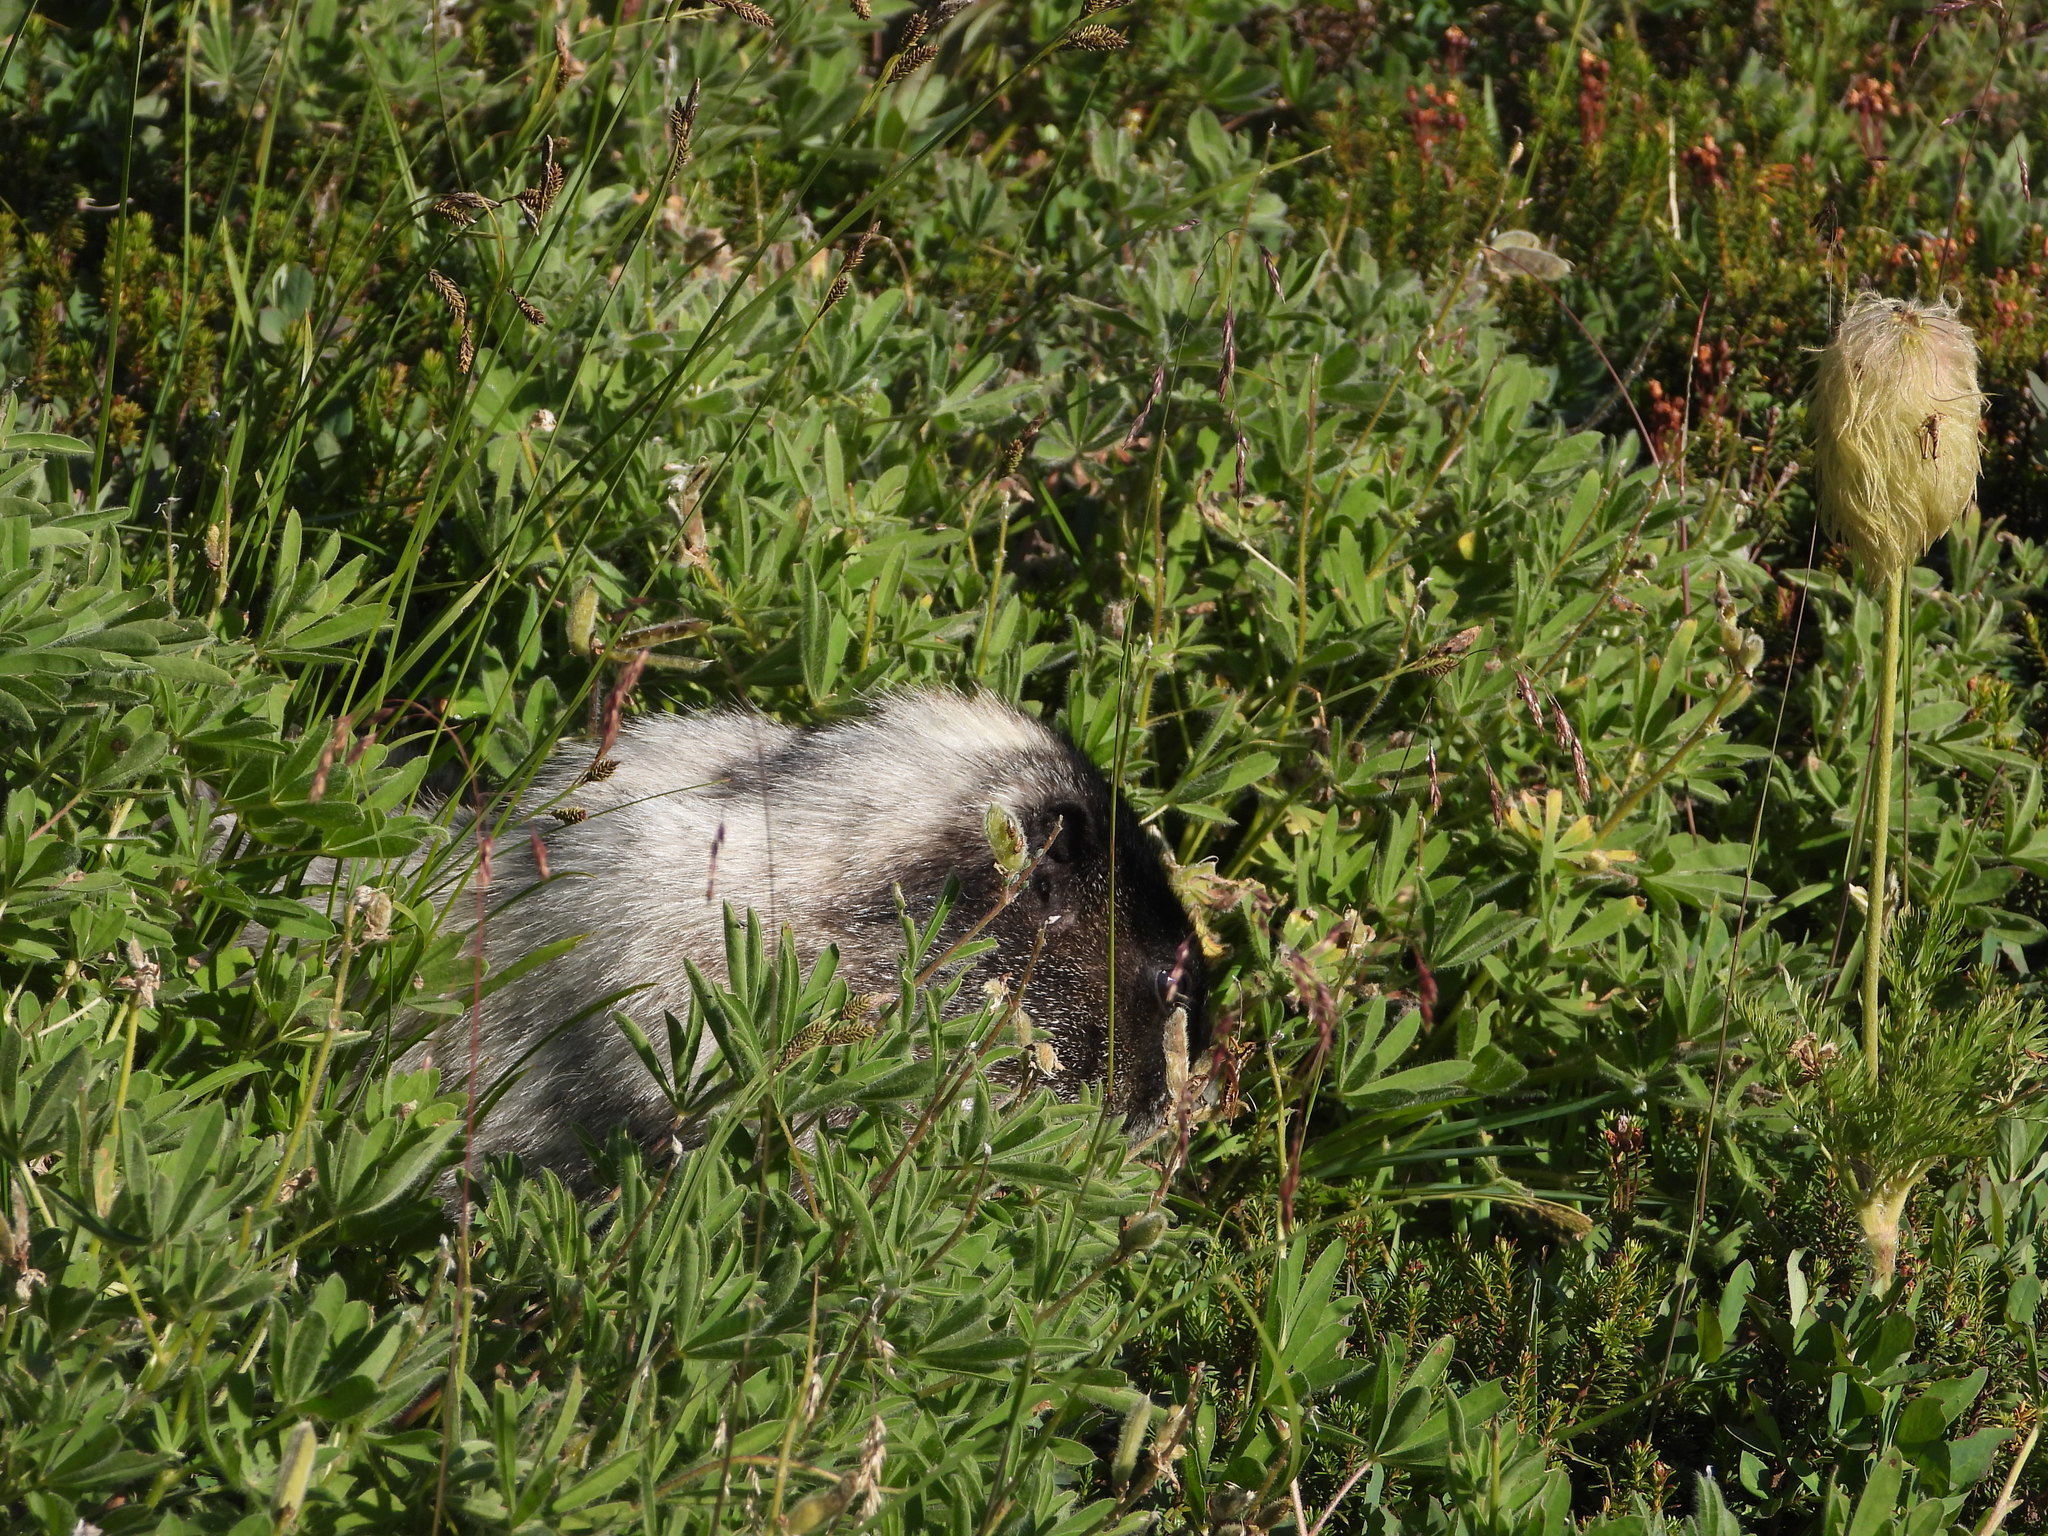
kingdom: Animalia
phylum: Chordata
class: Mammalia
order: Rodentia
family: Sciuridae
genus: Marmota
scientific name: Marmota caligata
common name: Hoary marmot
